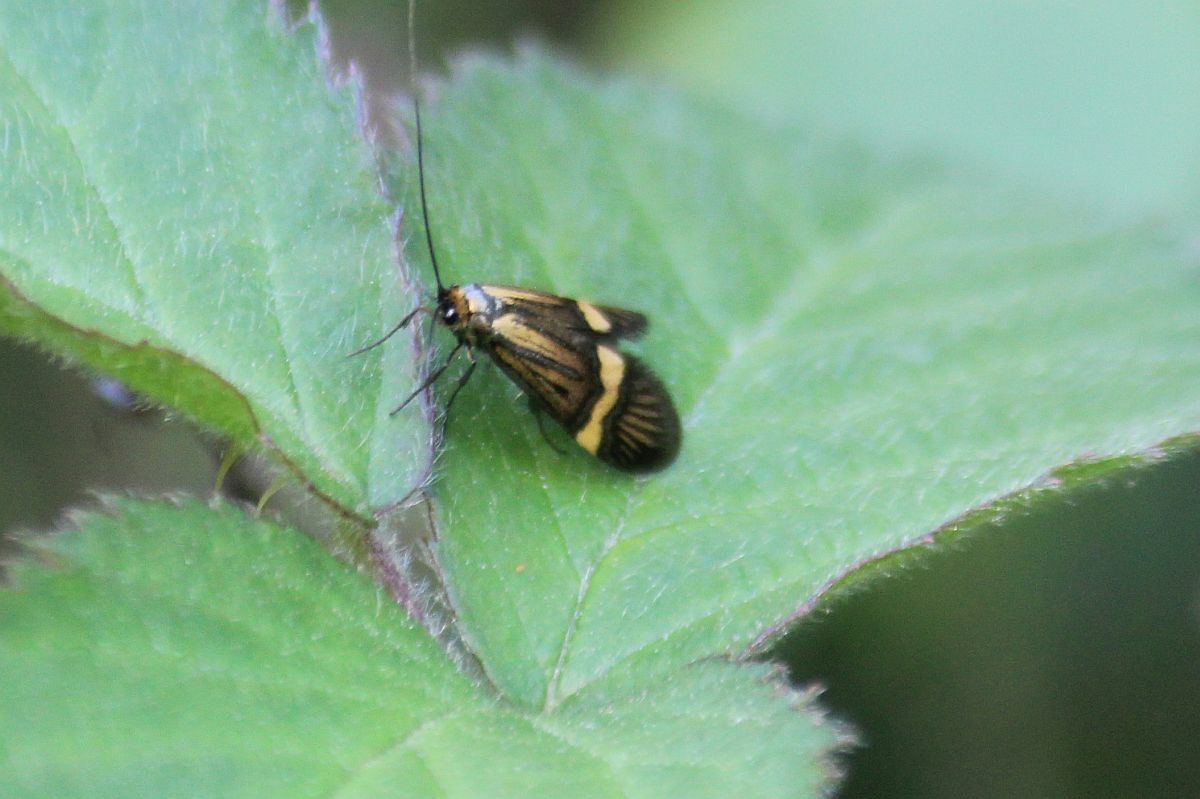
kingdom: Animalia
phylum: Arthropoda
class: Insecta
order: Lepidoptera
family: Adelidae
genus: Nemophora
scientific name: Nemophora degeerella
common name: Yellow-barred long-horn
